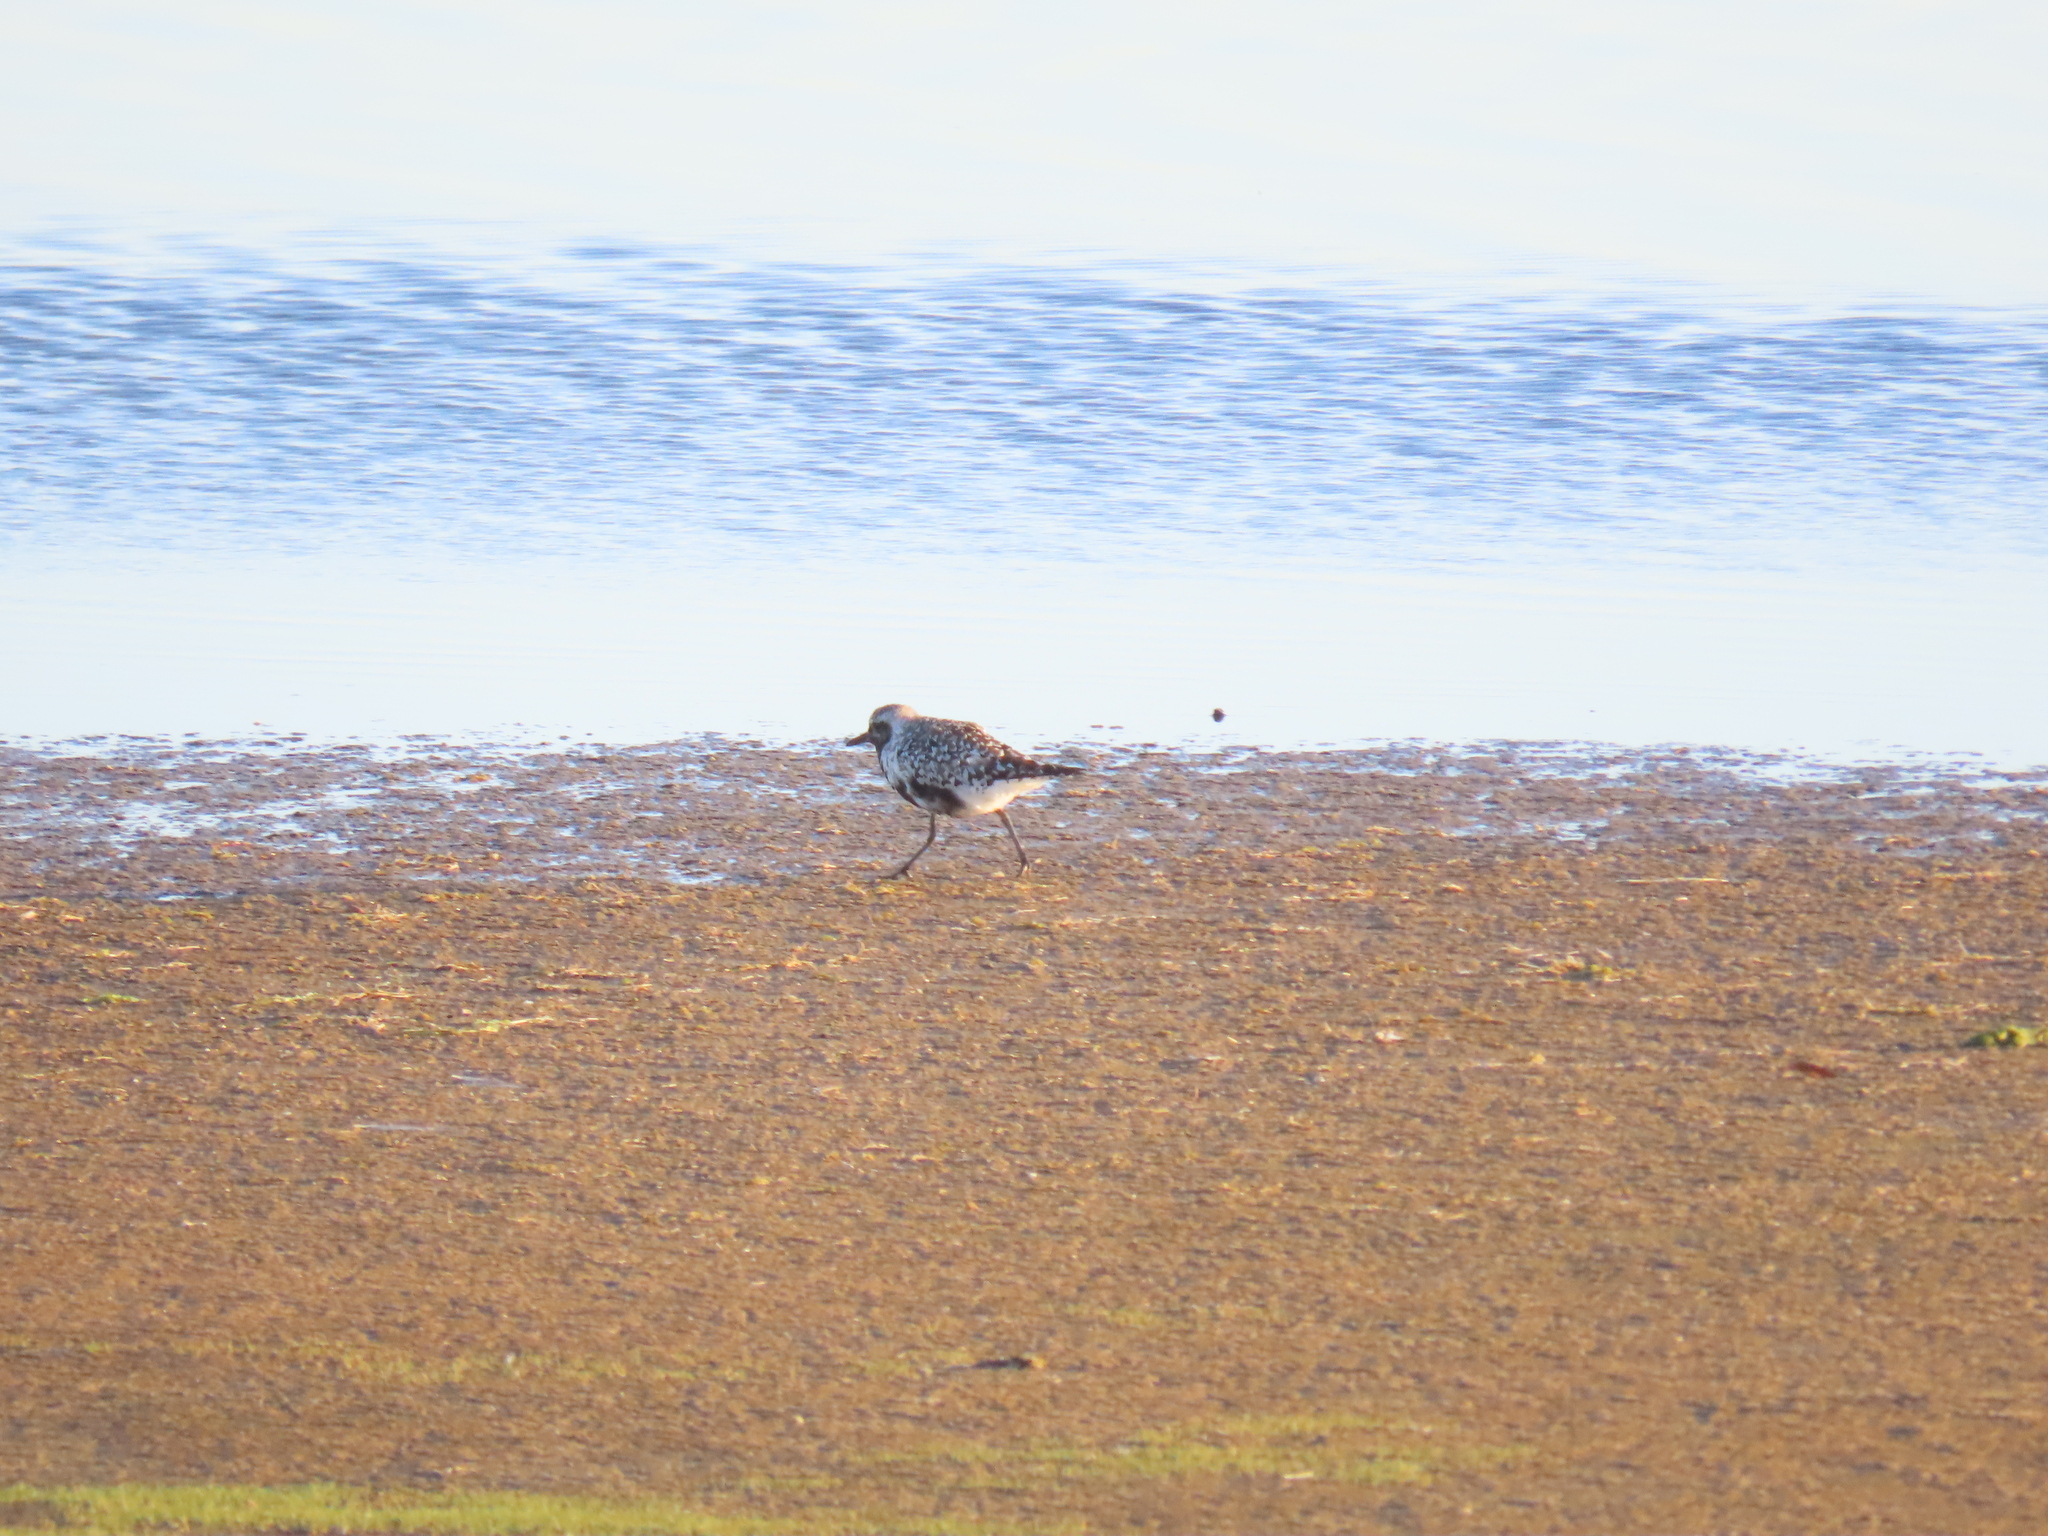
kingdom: Animalia
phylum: Chordata
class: Aves
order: Charadriiformes
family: Charadriidae
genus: Pluvialis
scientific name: Pluvialis squatarola
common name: Grey plover
